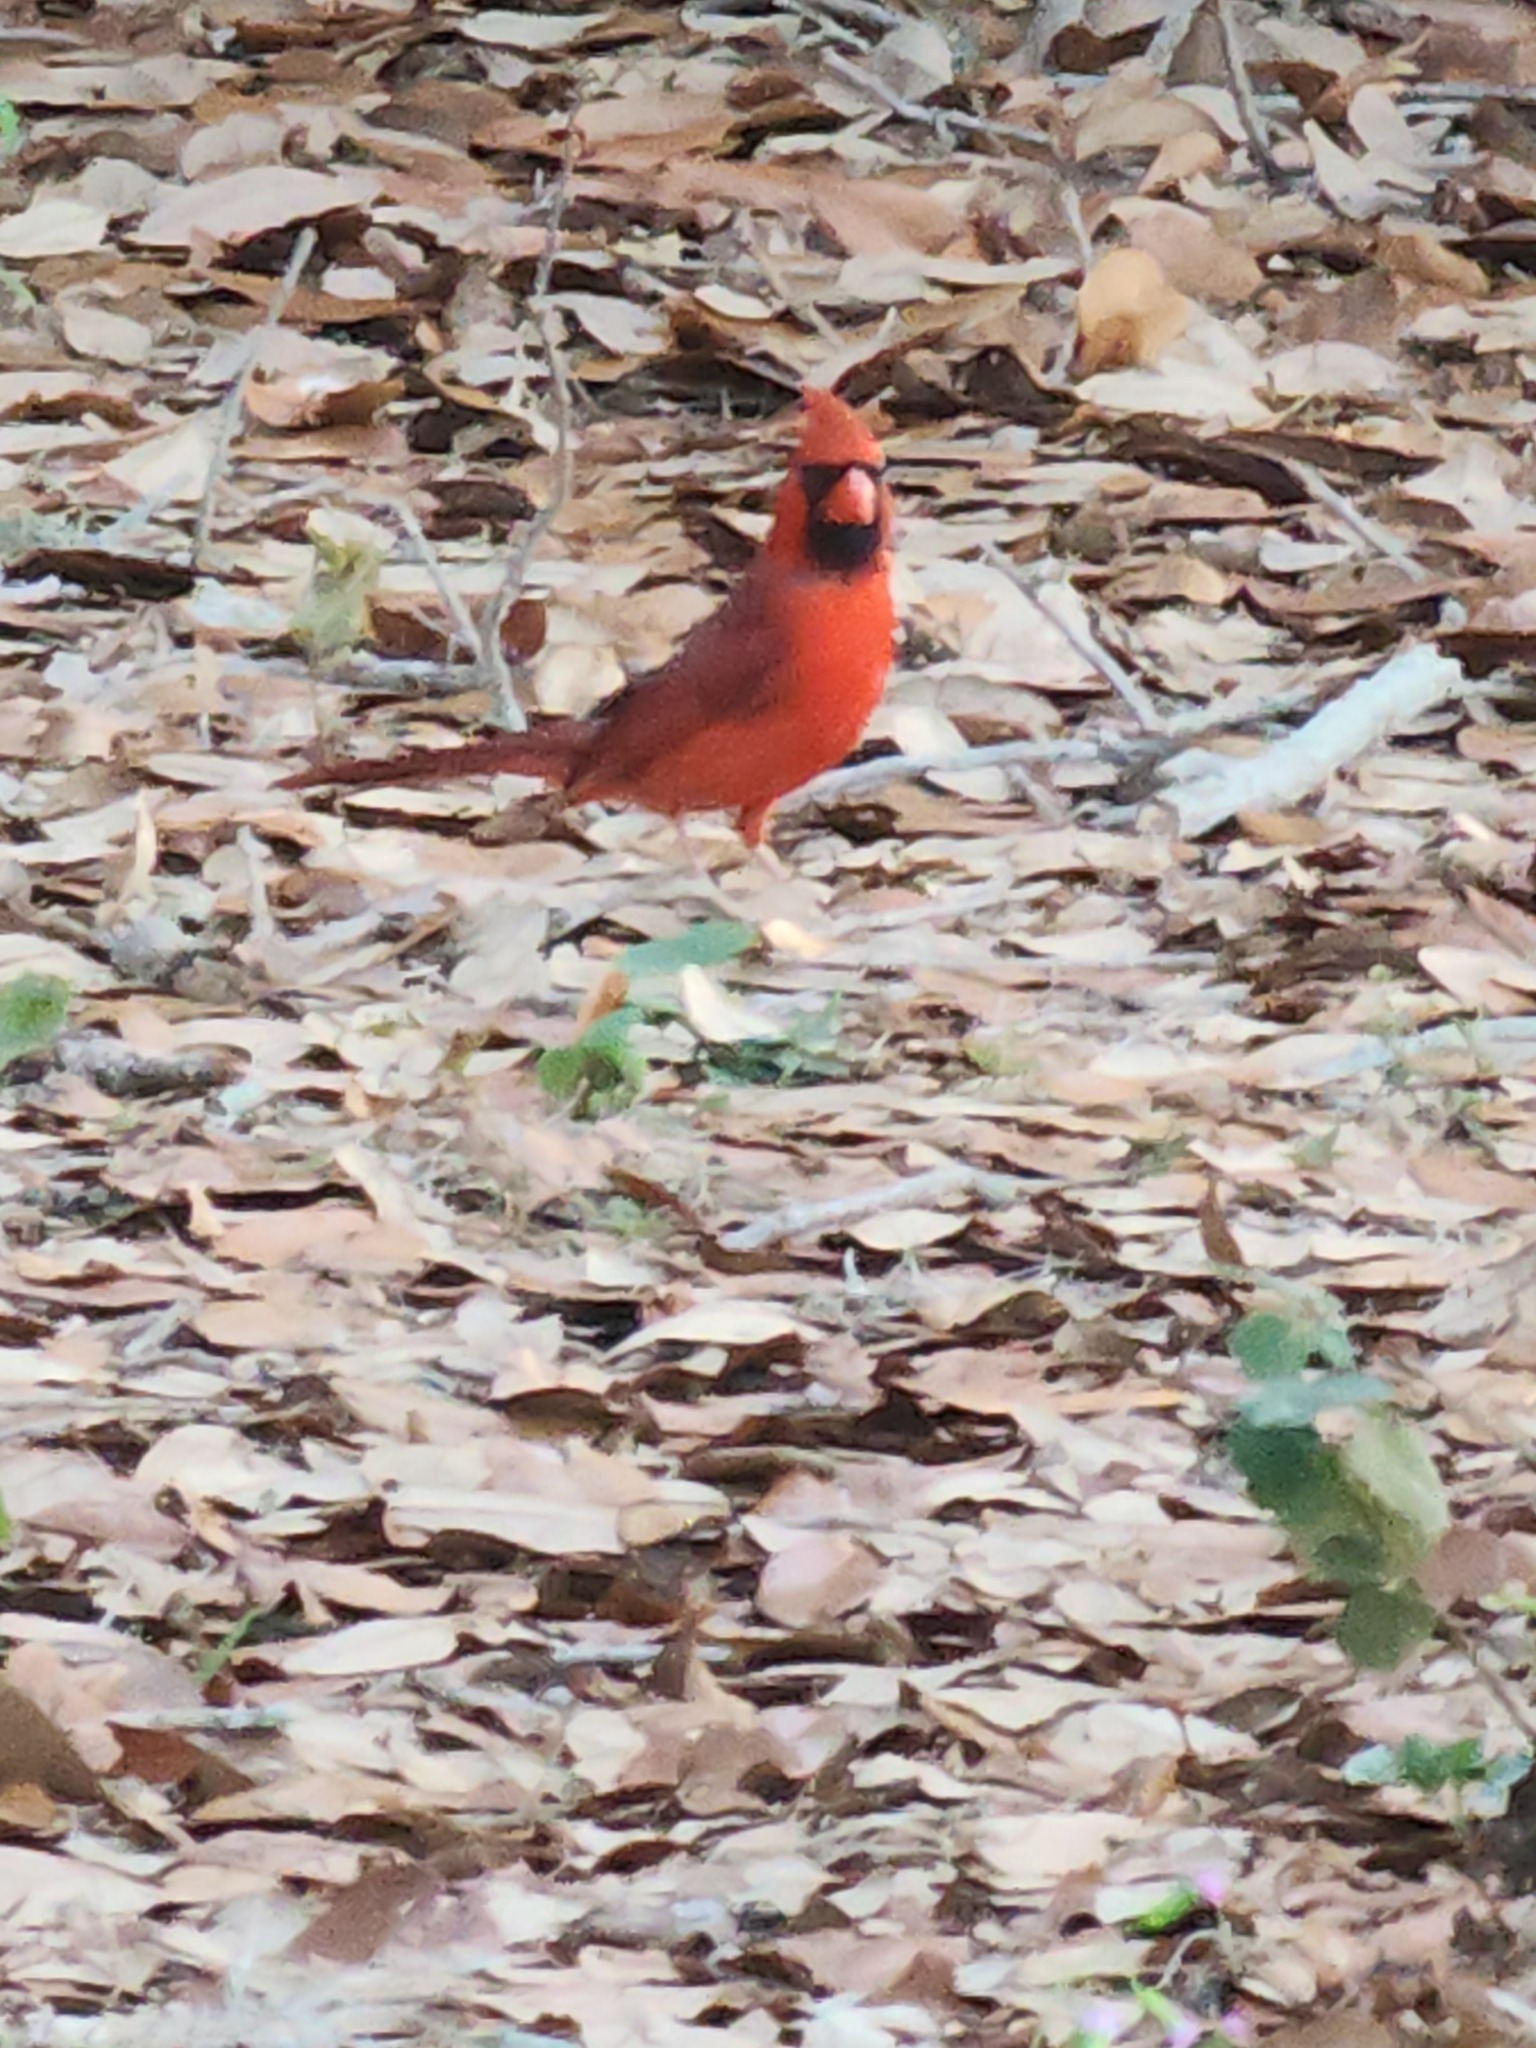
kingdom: Animalia
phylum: Chordata
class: Aves
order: Passeriformes
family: Cardinalidae
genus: Cardinalis
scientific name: Cardinalis cardinalis
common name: Northern cardinal
